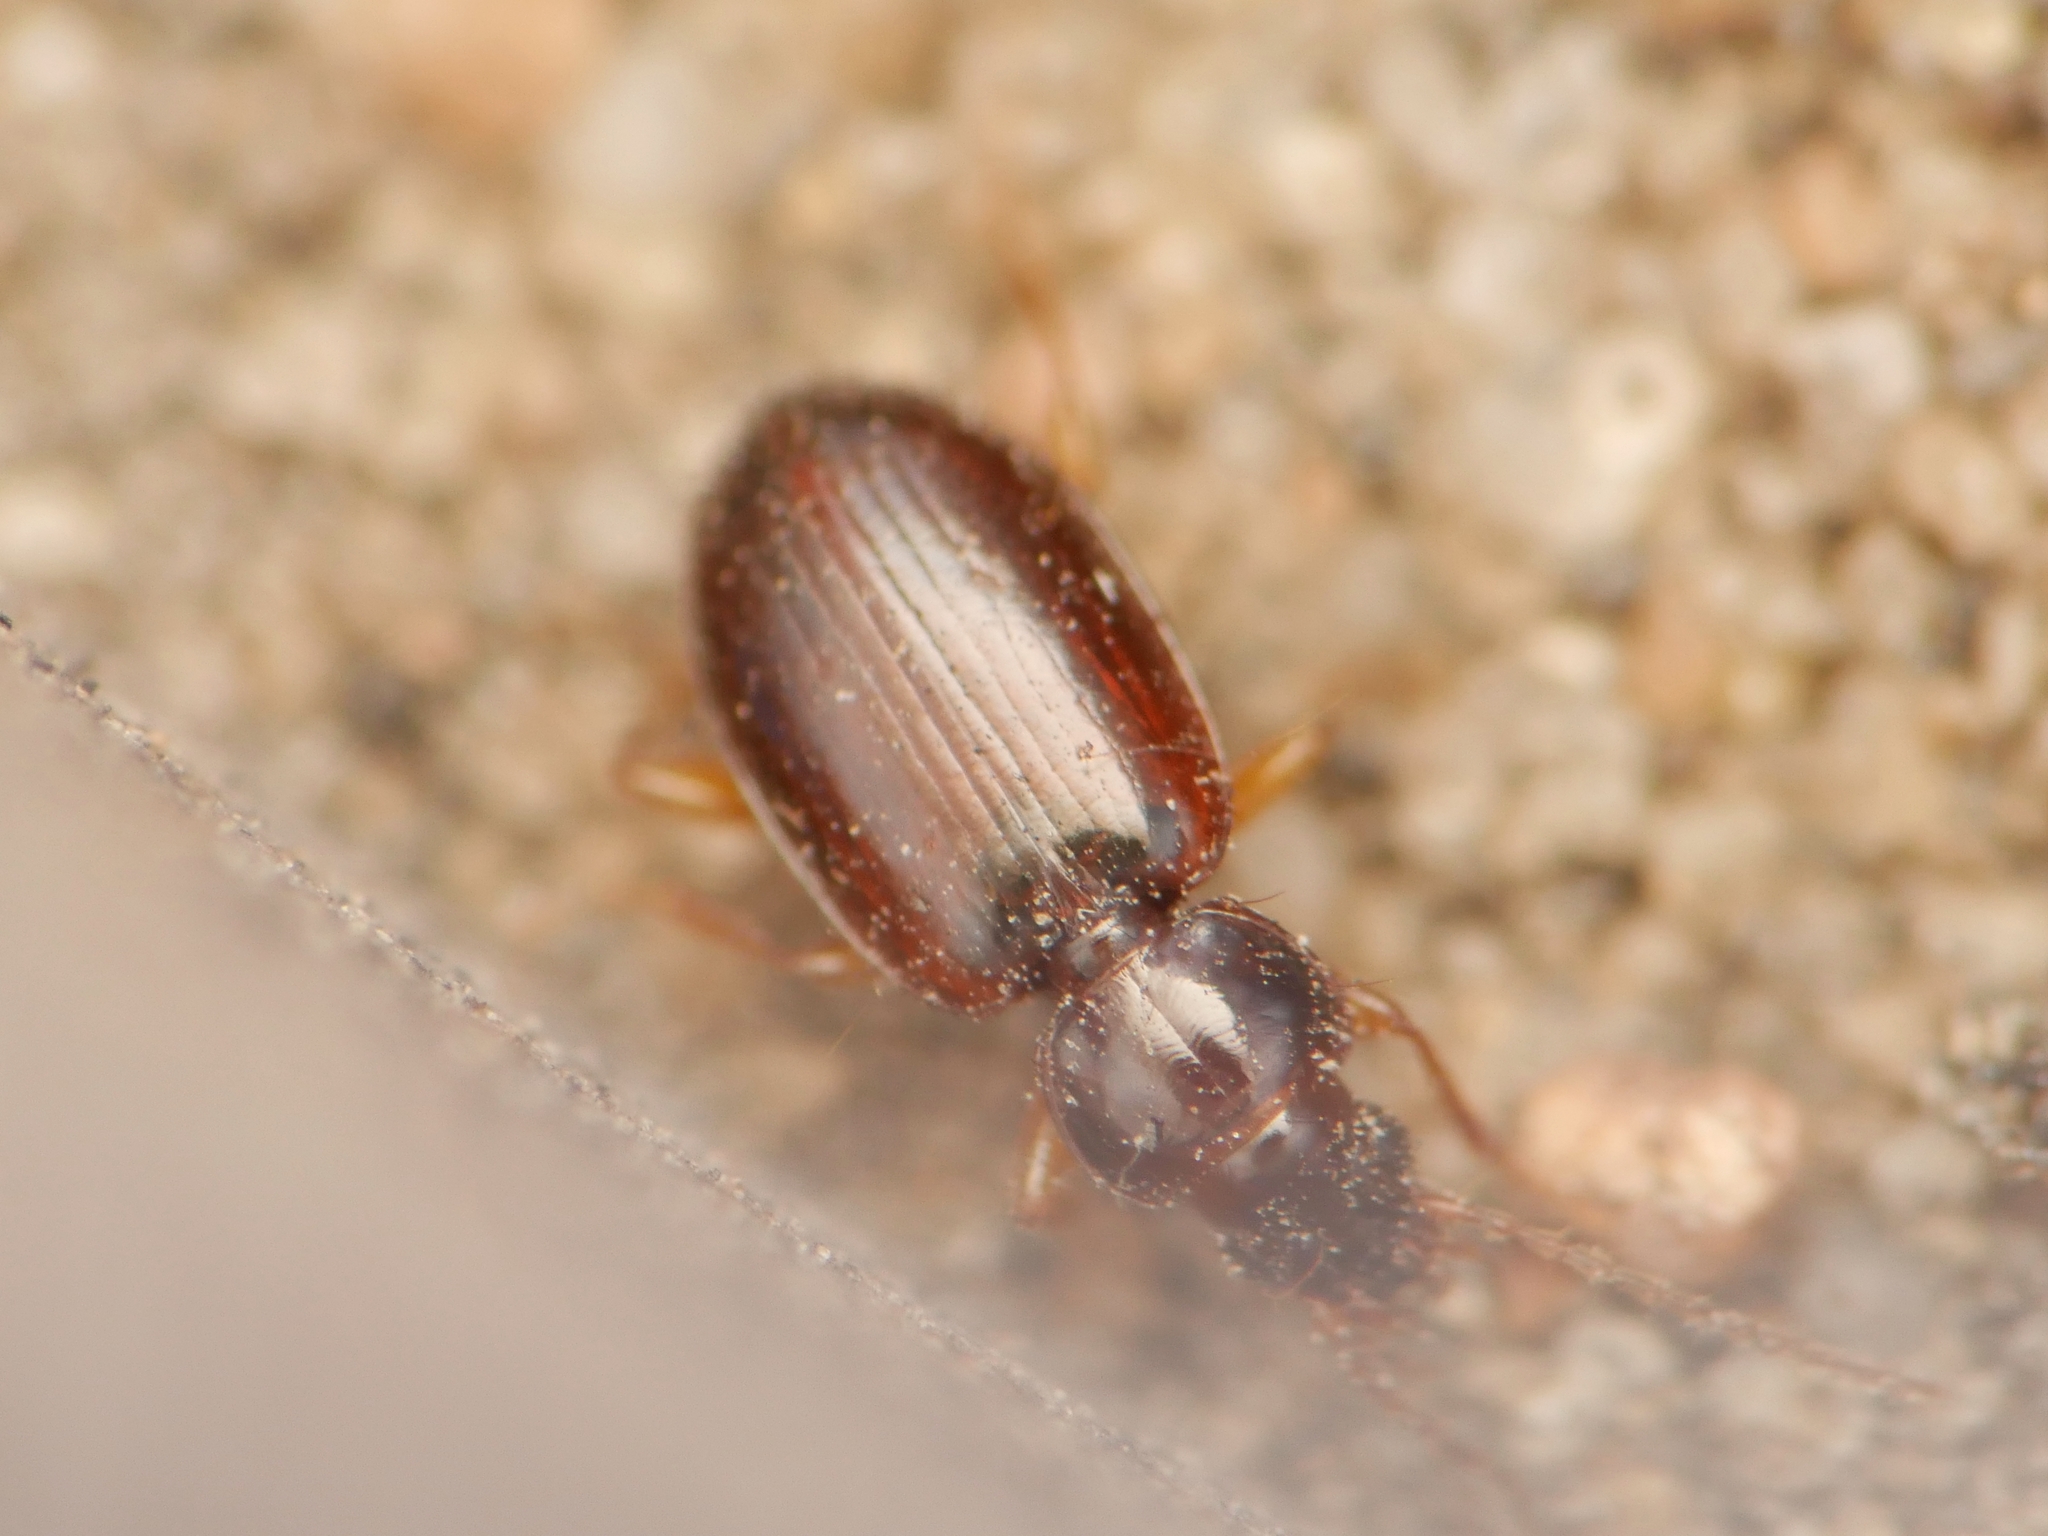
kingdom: Animalia
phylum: Arthropoda
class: Insecta
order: Coleoptera
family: Carabidae
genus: Trechus
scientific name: Trechus quadristriatus
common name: Four-striated riverbank ground beetle
